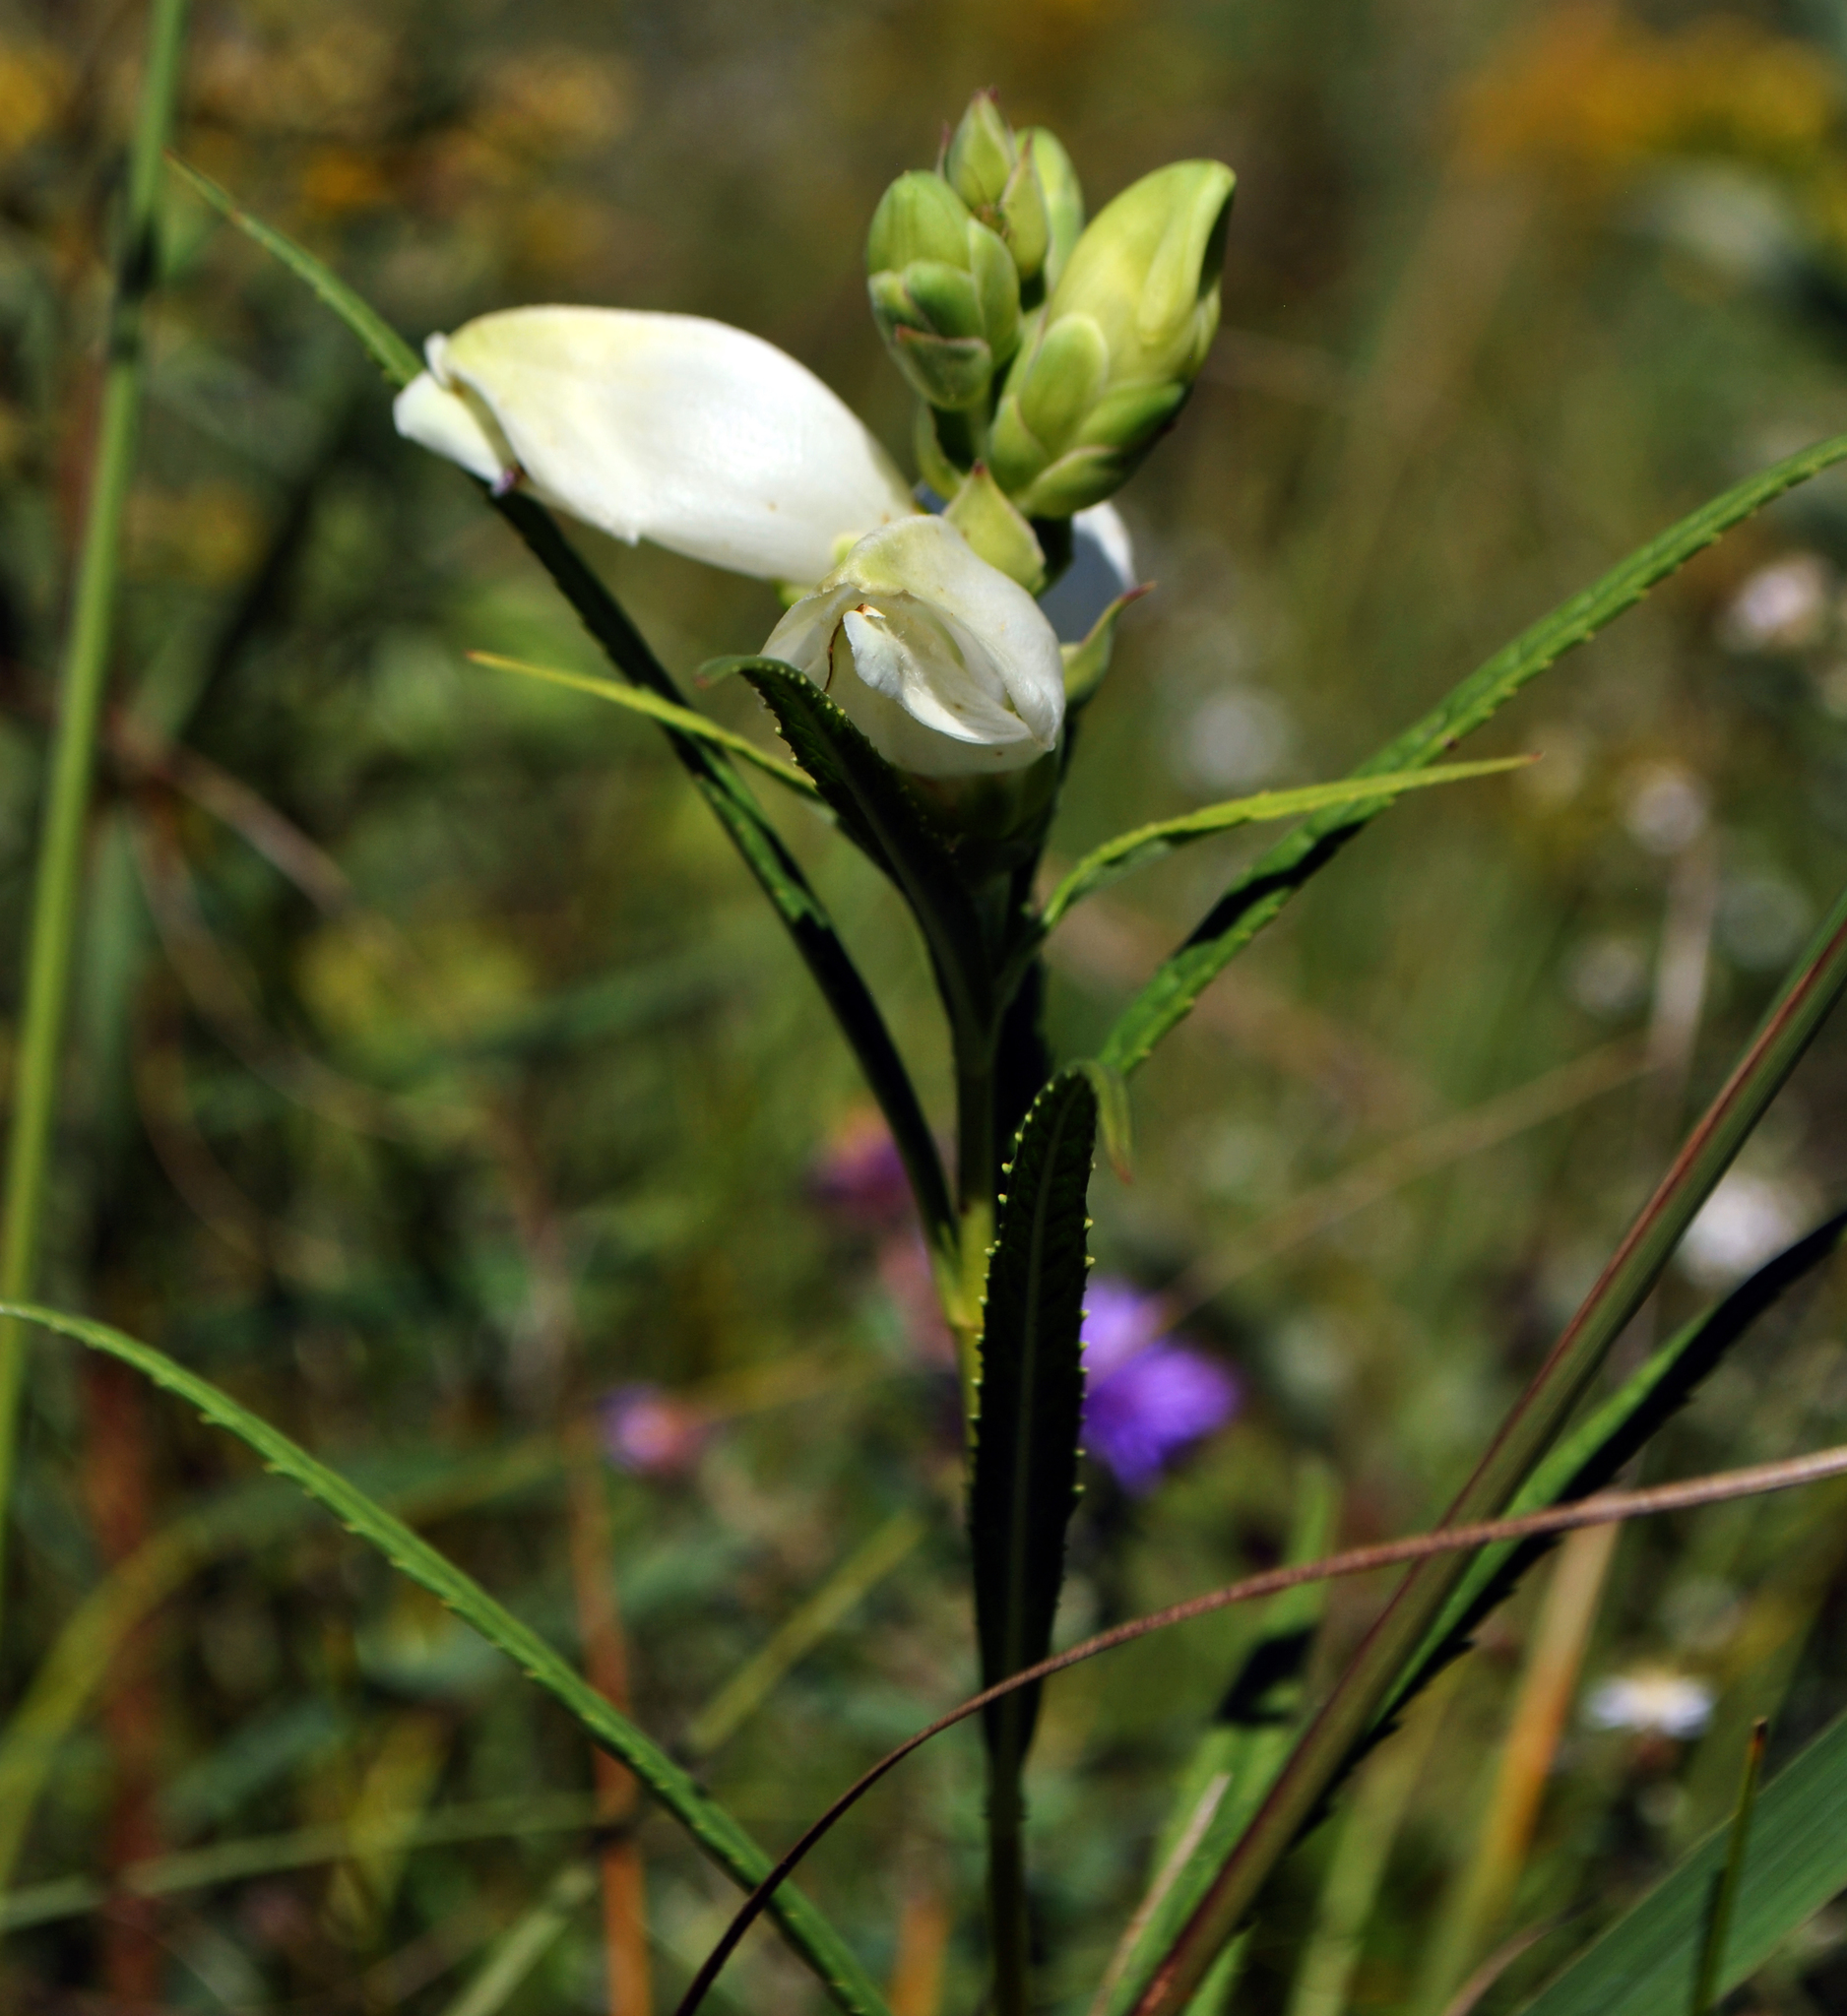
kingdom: Plantae
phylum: Tracheophyta
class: Magnoliopsida
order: Lamiales
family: Plantaginaceae
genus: Chelone
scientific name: Chelone glabra
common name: Snakehead
